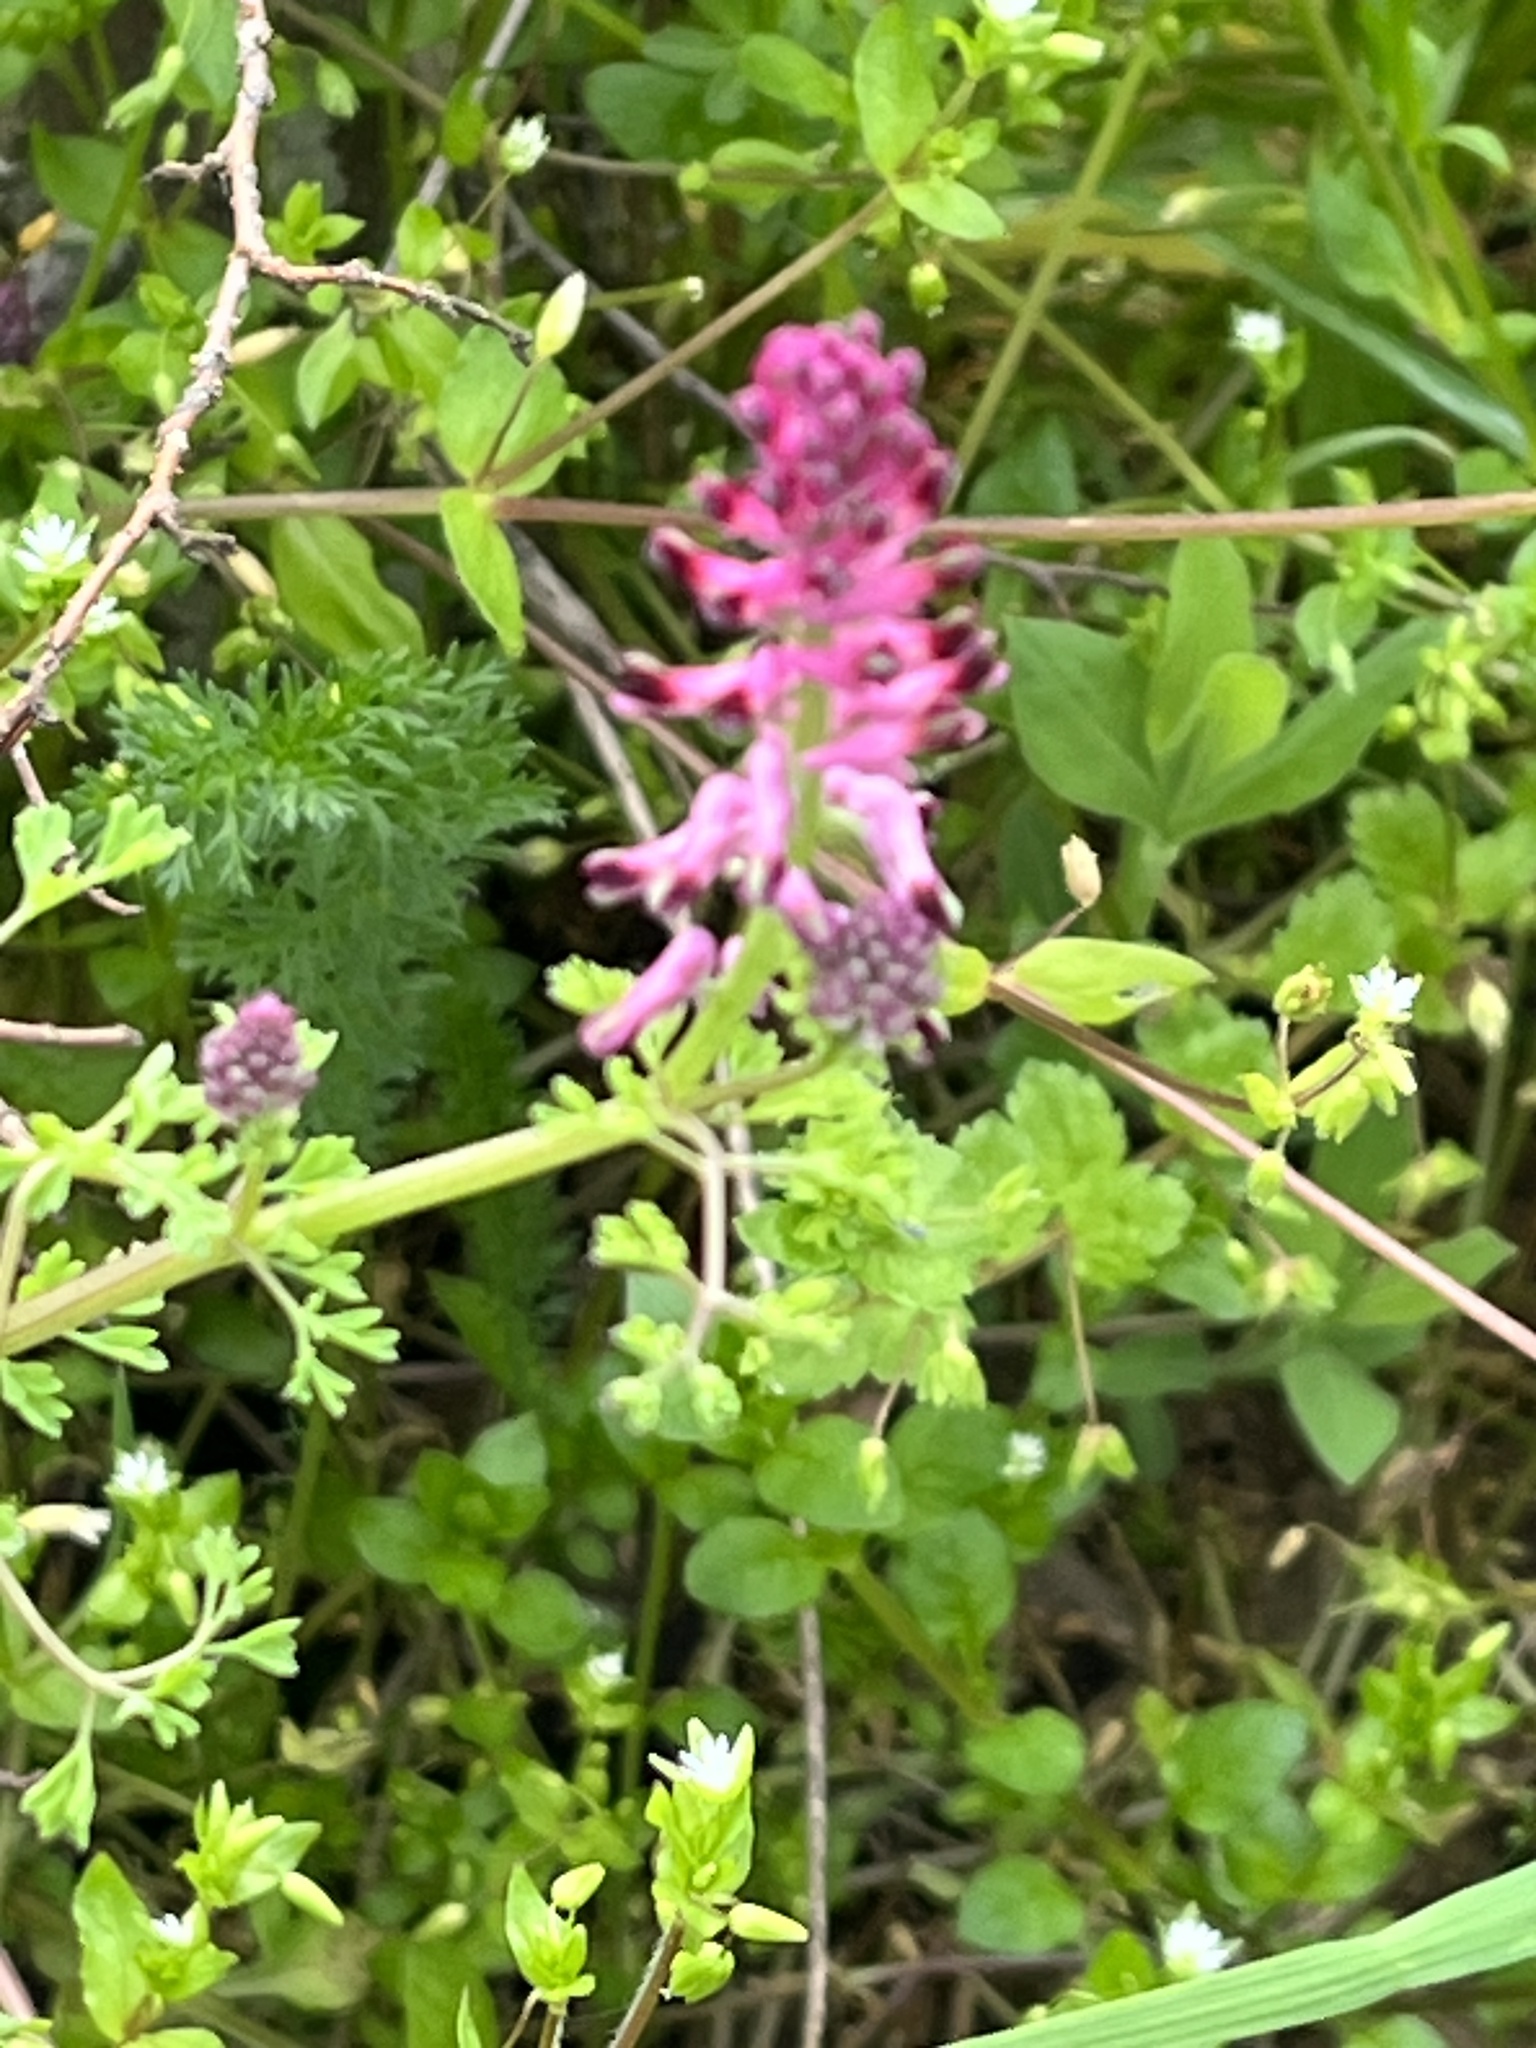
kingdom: Plantae
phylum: Tracheophyta
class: Magnoliopsida
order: Ranunculales
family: Papaveraceae
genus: Fumaria
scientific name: Fumaria officinalis
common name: Common fumitory
